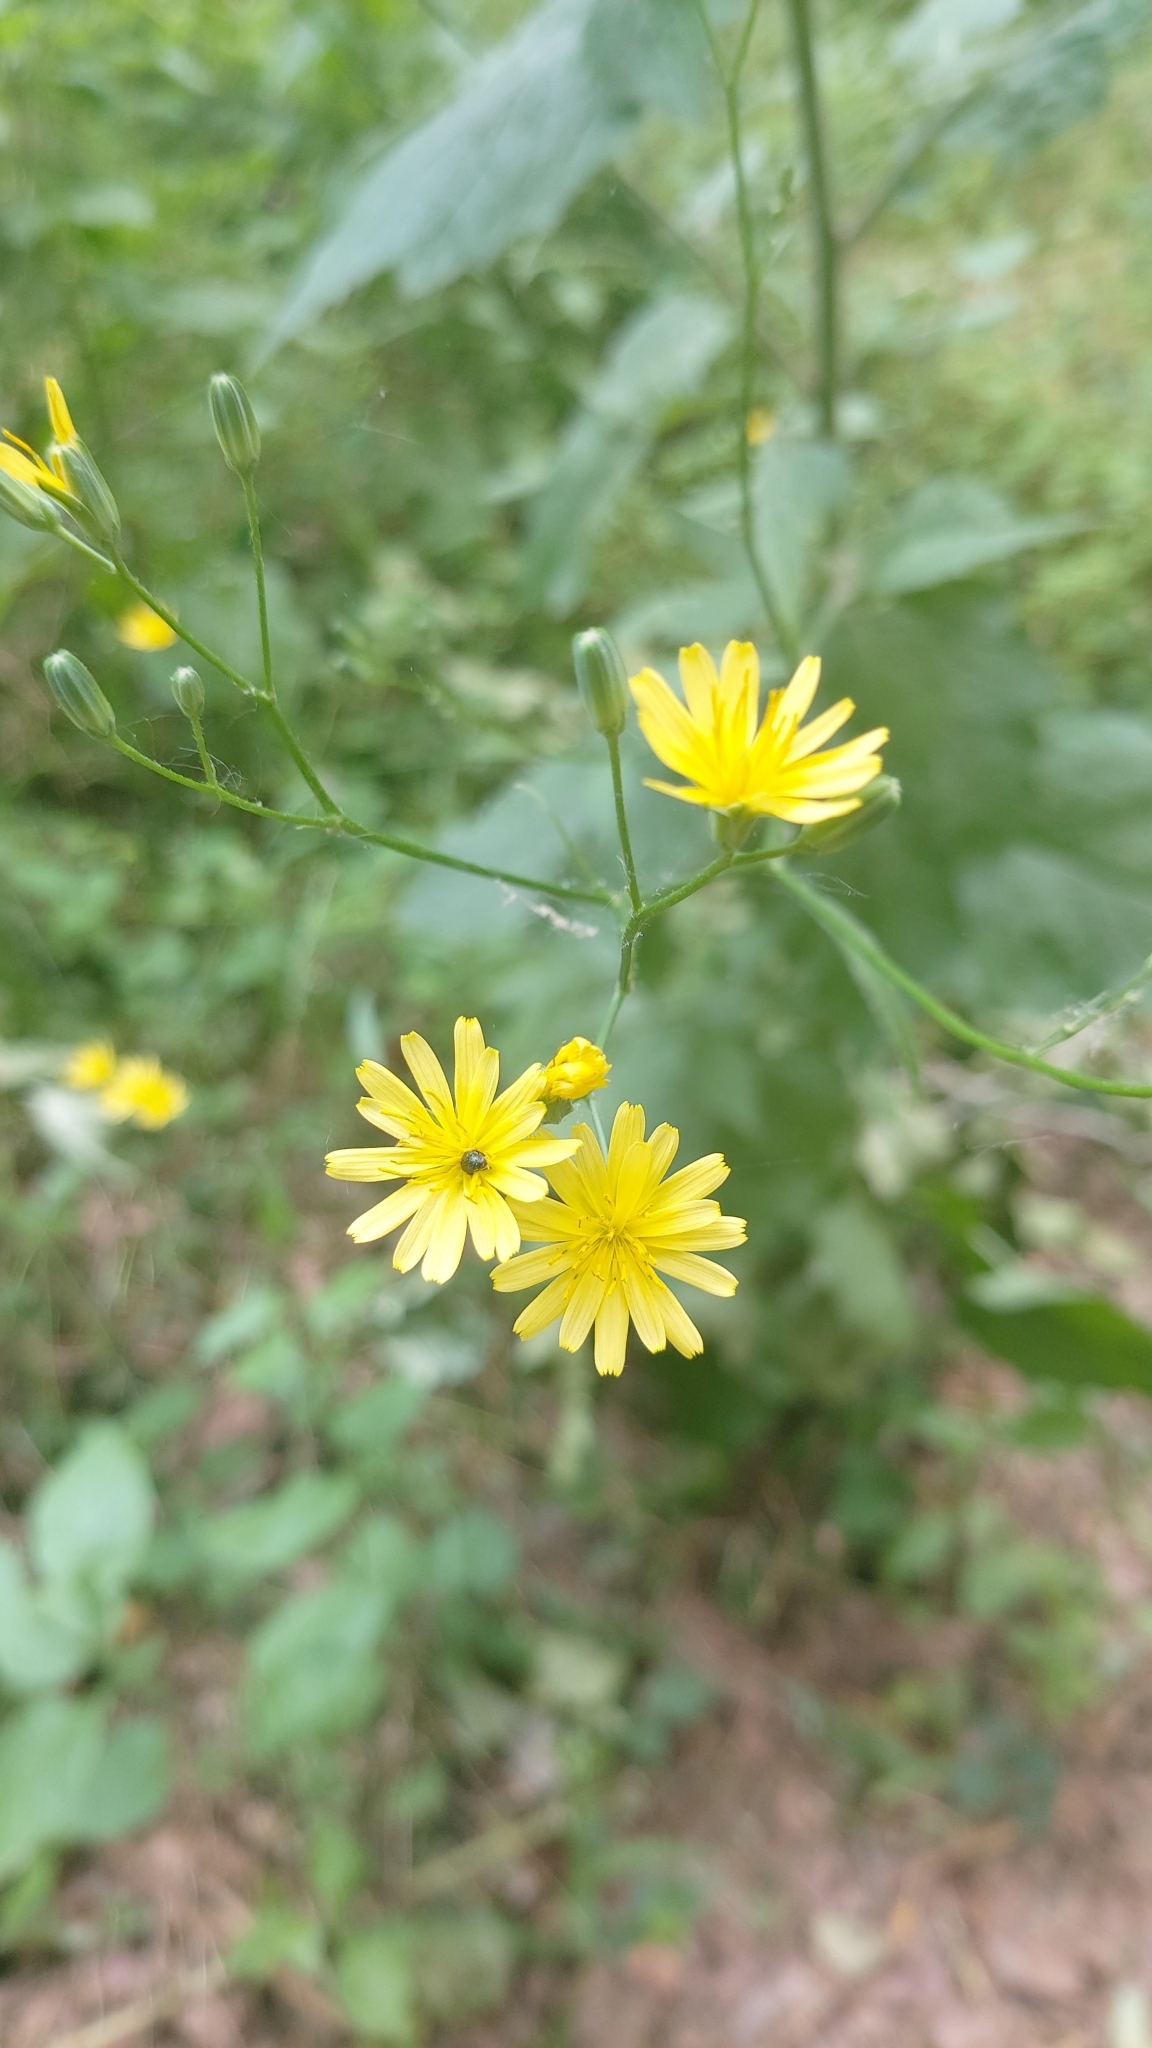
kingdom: Plantae
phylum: Tracheophyta
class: Magnoliopsida
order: Asterales
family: Asteraceae
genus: Lapsana
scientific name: Lapsana communis
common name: Nipplewort
